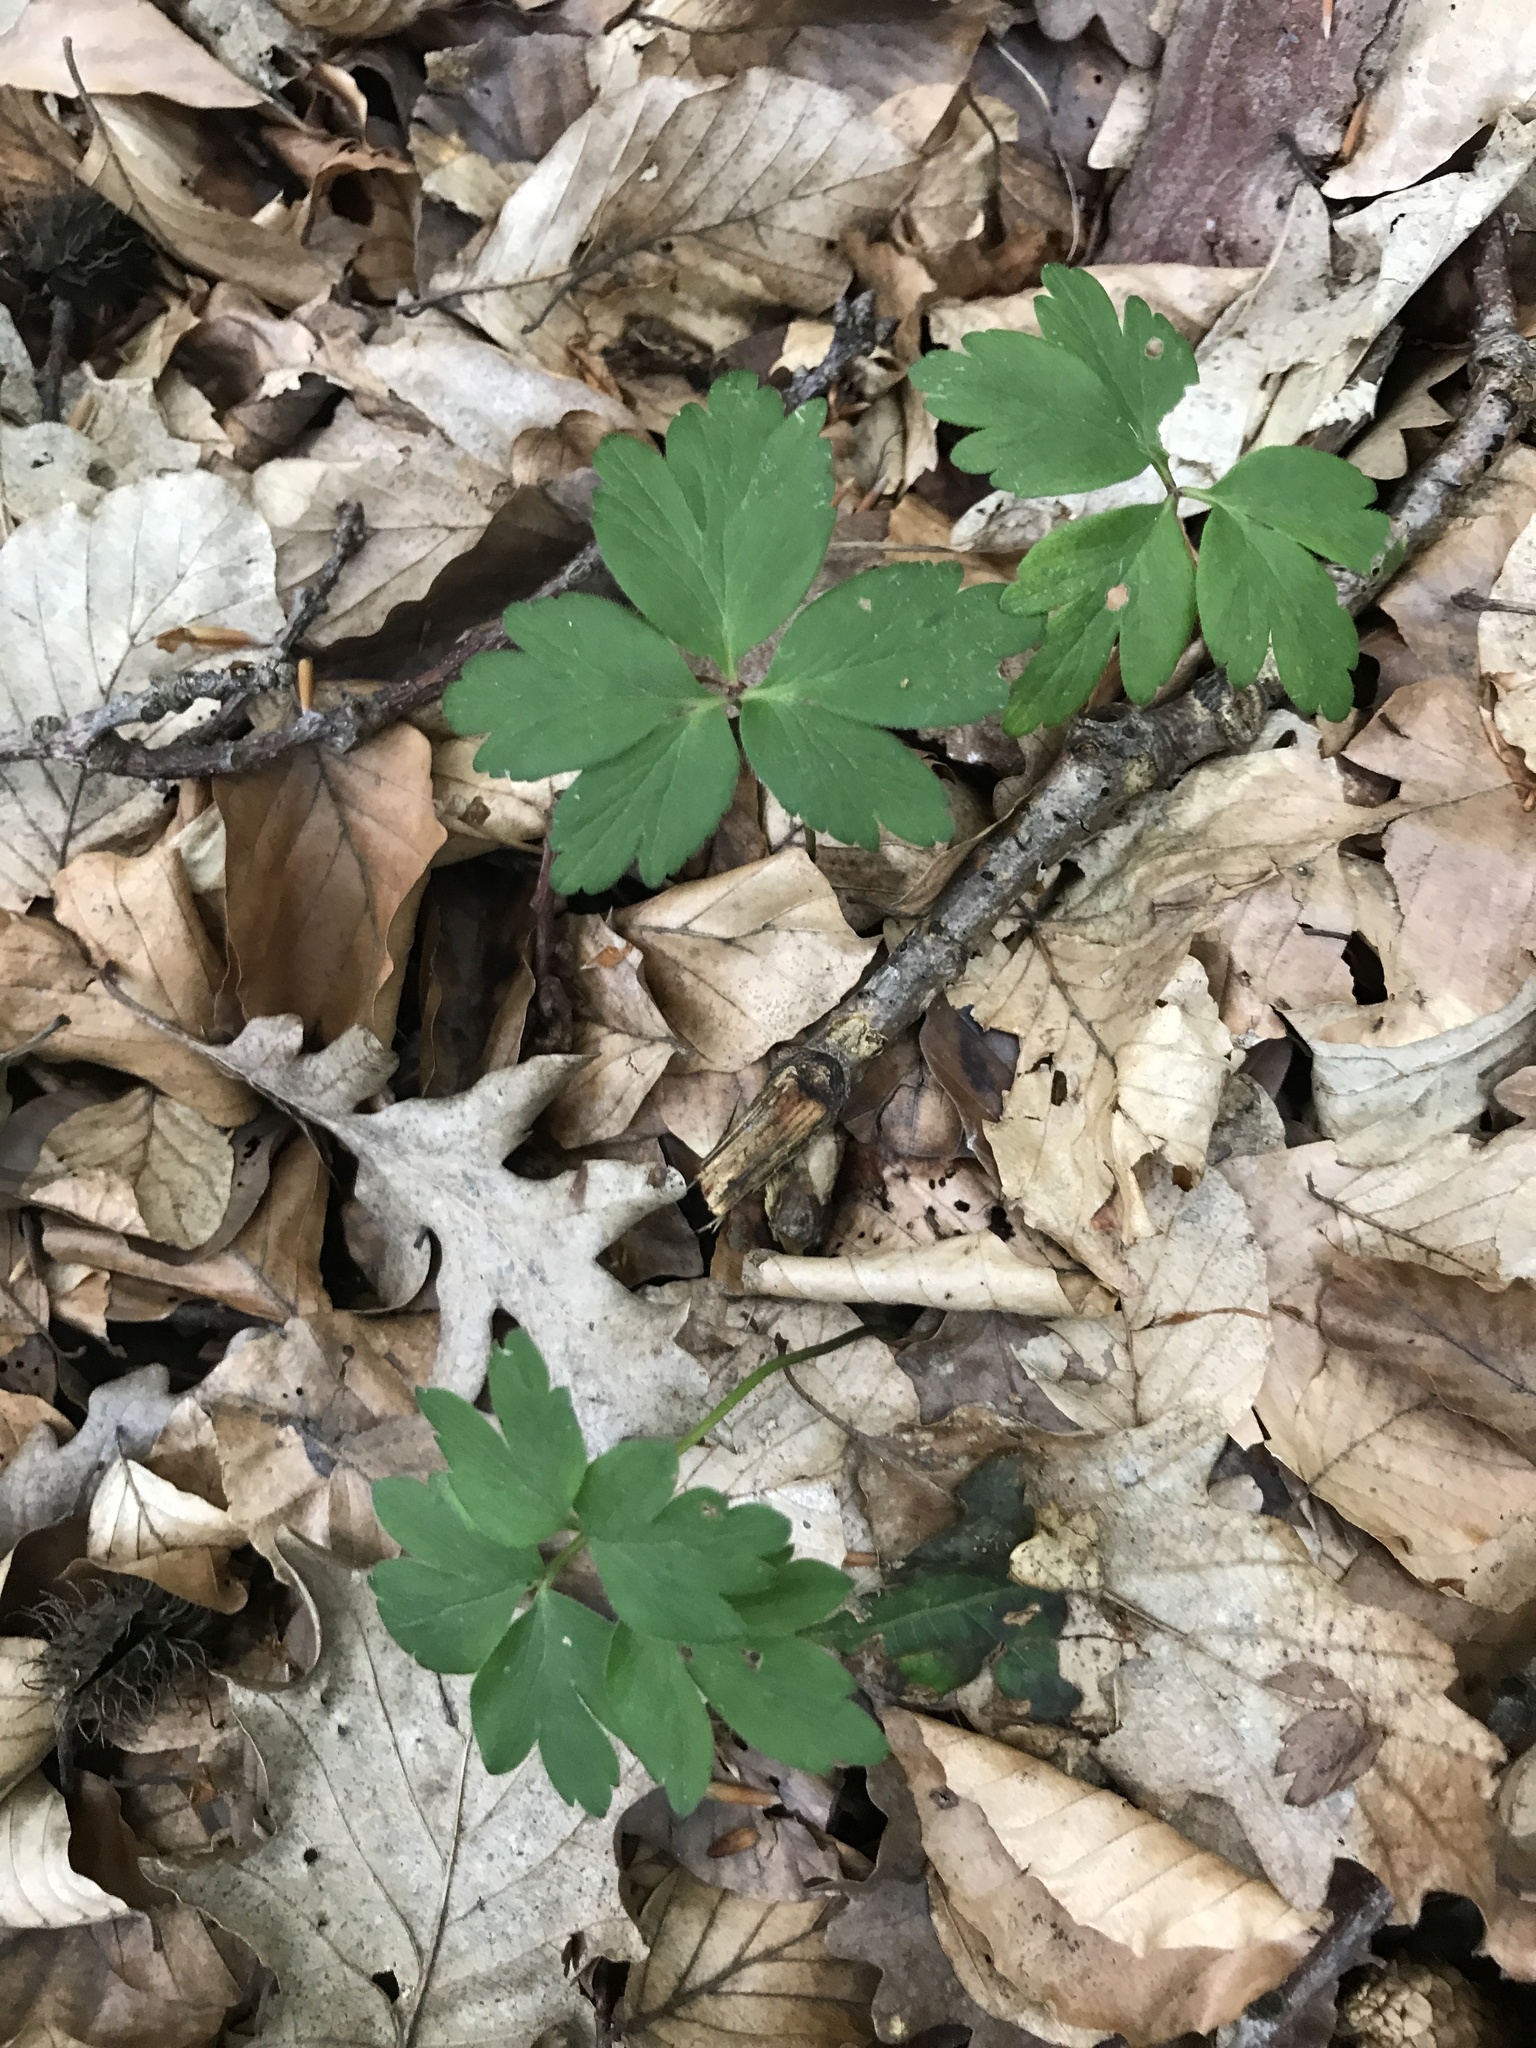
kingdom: Plantae
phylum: Tracheophyta
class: Magnoliopsida
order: Ranunculales
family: Ranunculaceae
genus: Anemone
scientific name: Anemone nemorosa
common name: Wood anemone
